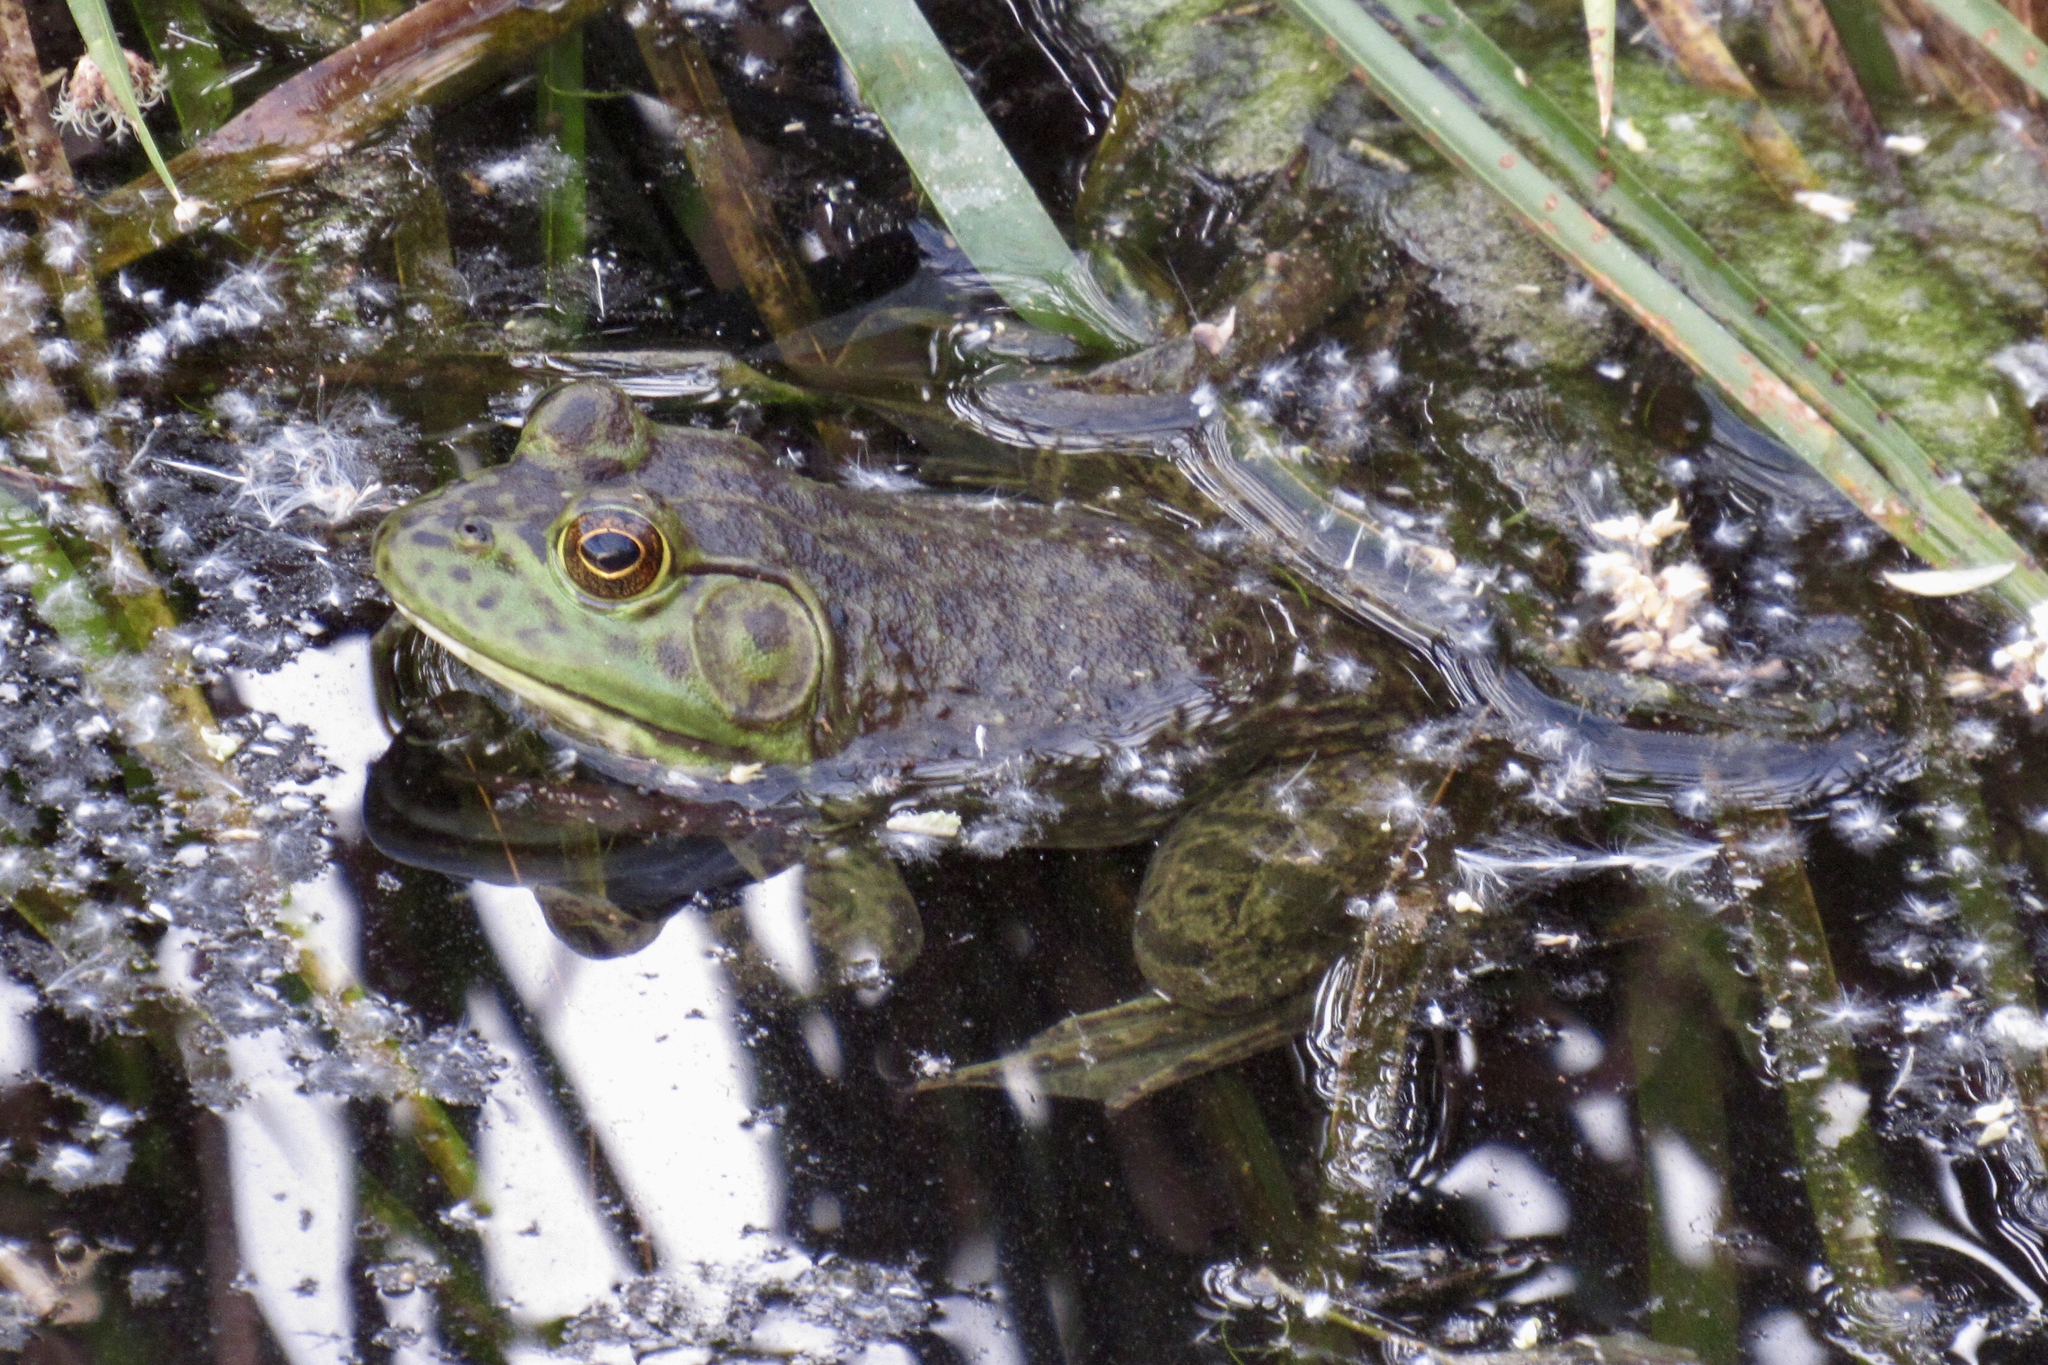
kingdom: Animalia
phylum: Chordata
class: Amphibia
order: Anura
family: Ranidae
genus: Lithobates
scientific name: Lithobates catesbeianus
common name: American bullfrog
